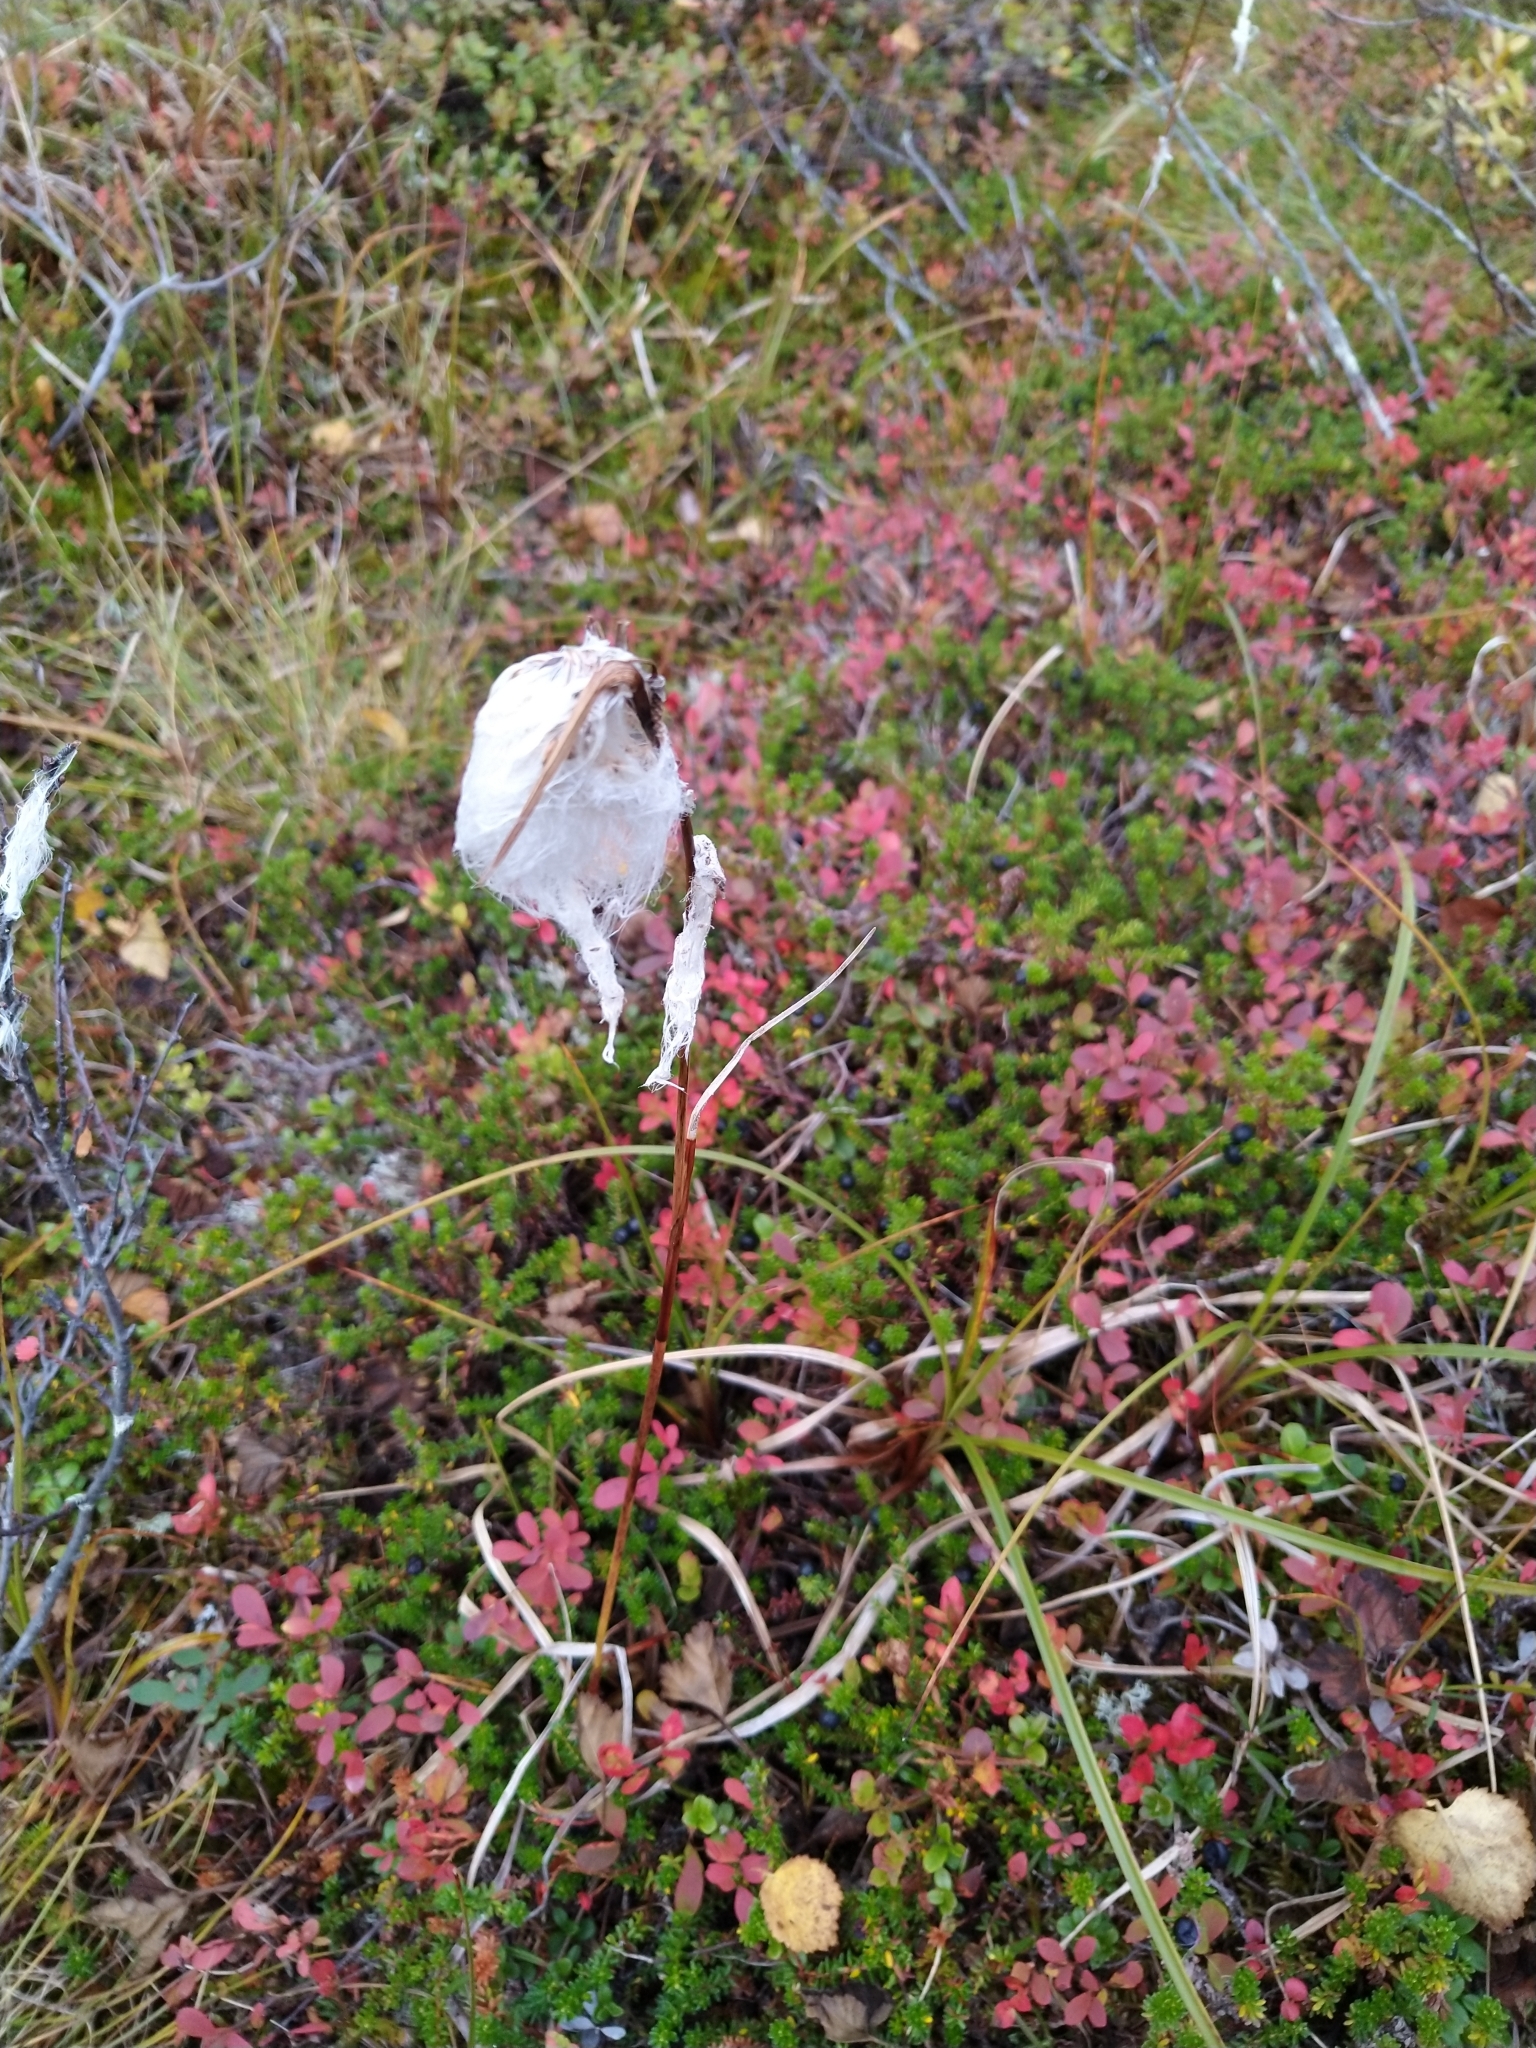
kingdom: Plantae
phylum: Tracheophyta
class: Liliopsida
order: Poales
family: Cyperaceae
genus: Eriophorum
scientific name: Eriophorum vaginatum
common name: Hare's-tail cottongrass
